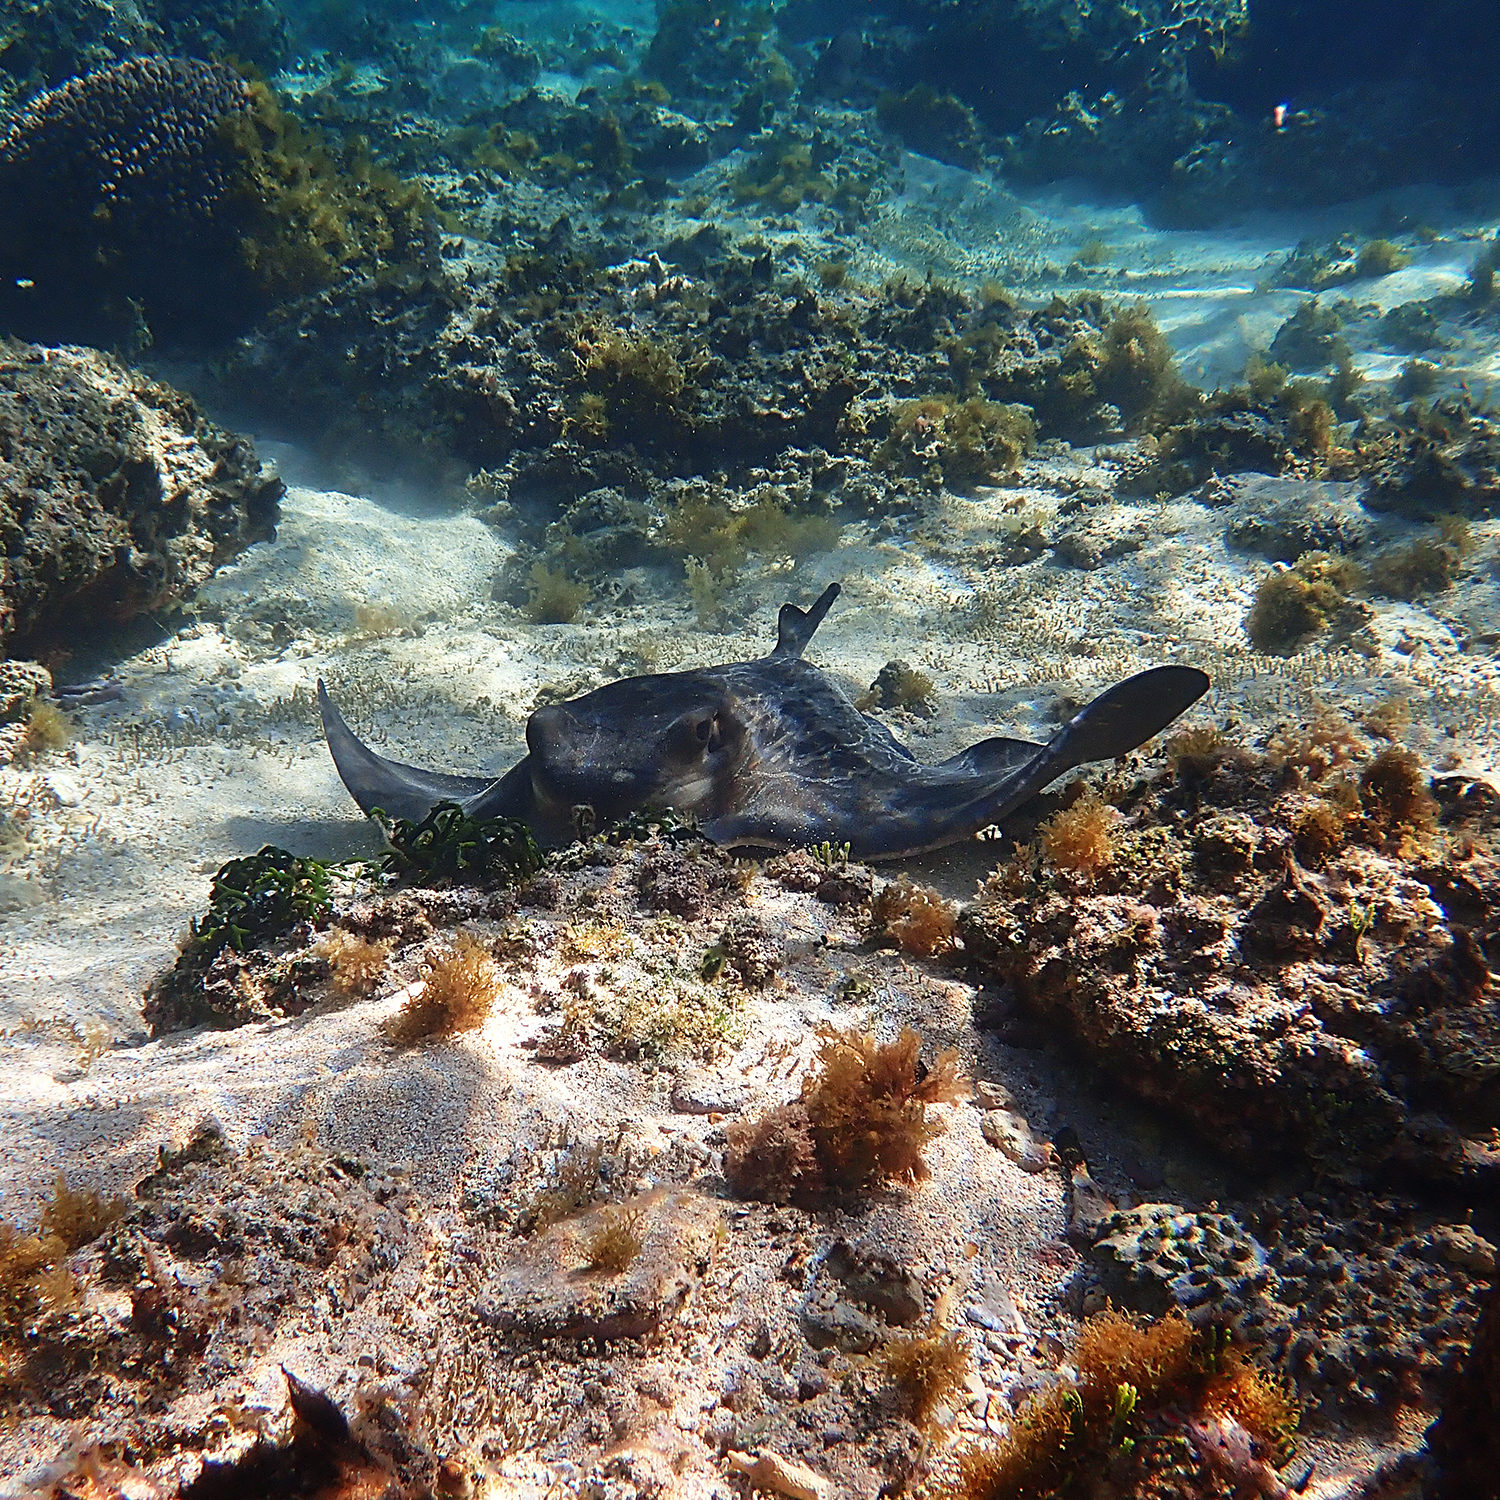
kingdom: Animalia
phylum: Chordata
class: Elasmobranchii
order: Myliobatiformes
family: Myliobatidae
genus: Myliobatis
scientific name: Myliobatis tenuicaudatus
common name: Eagle ray
